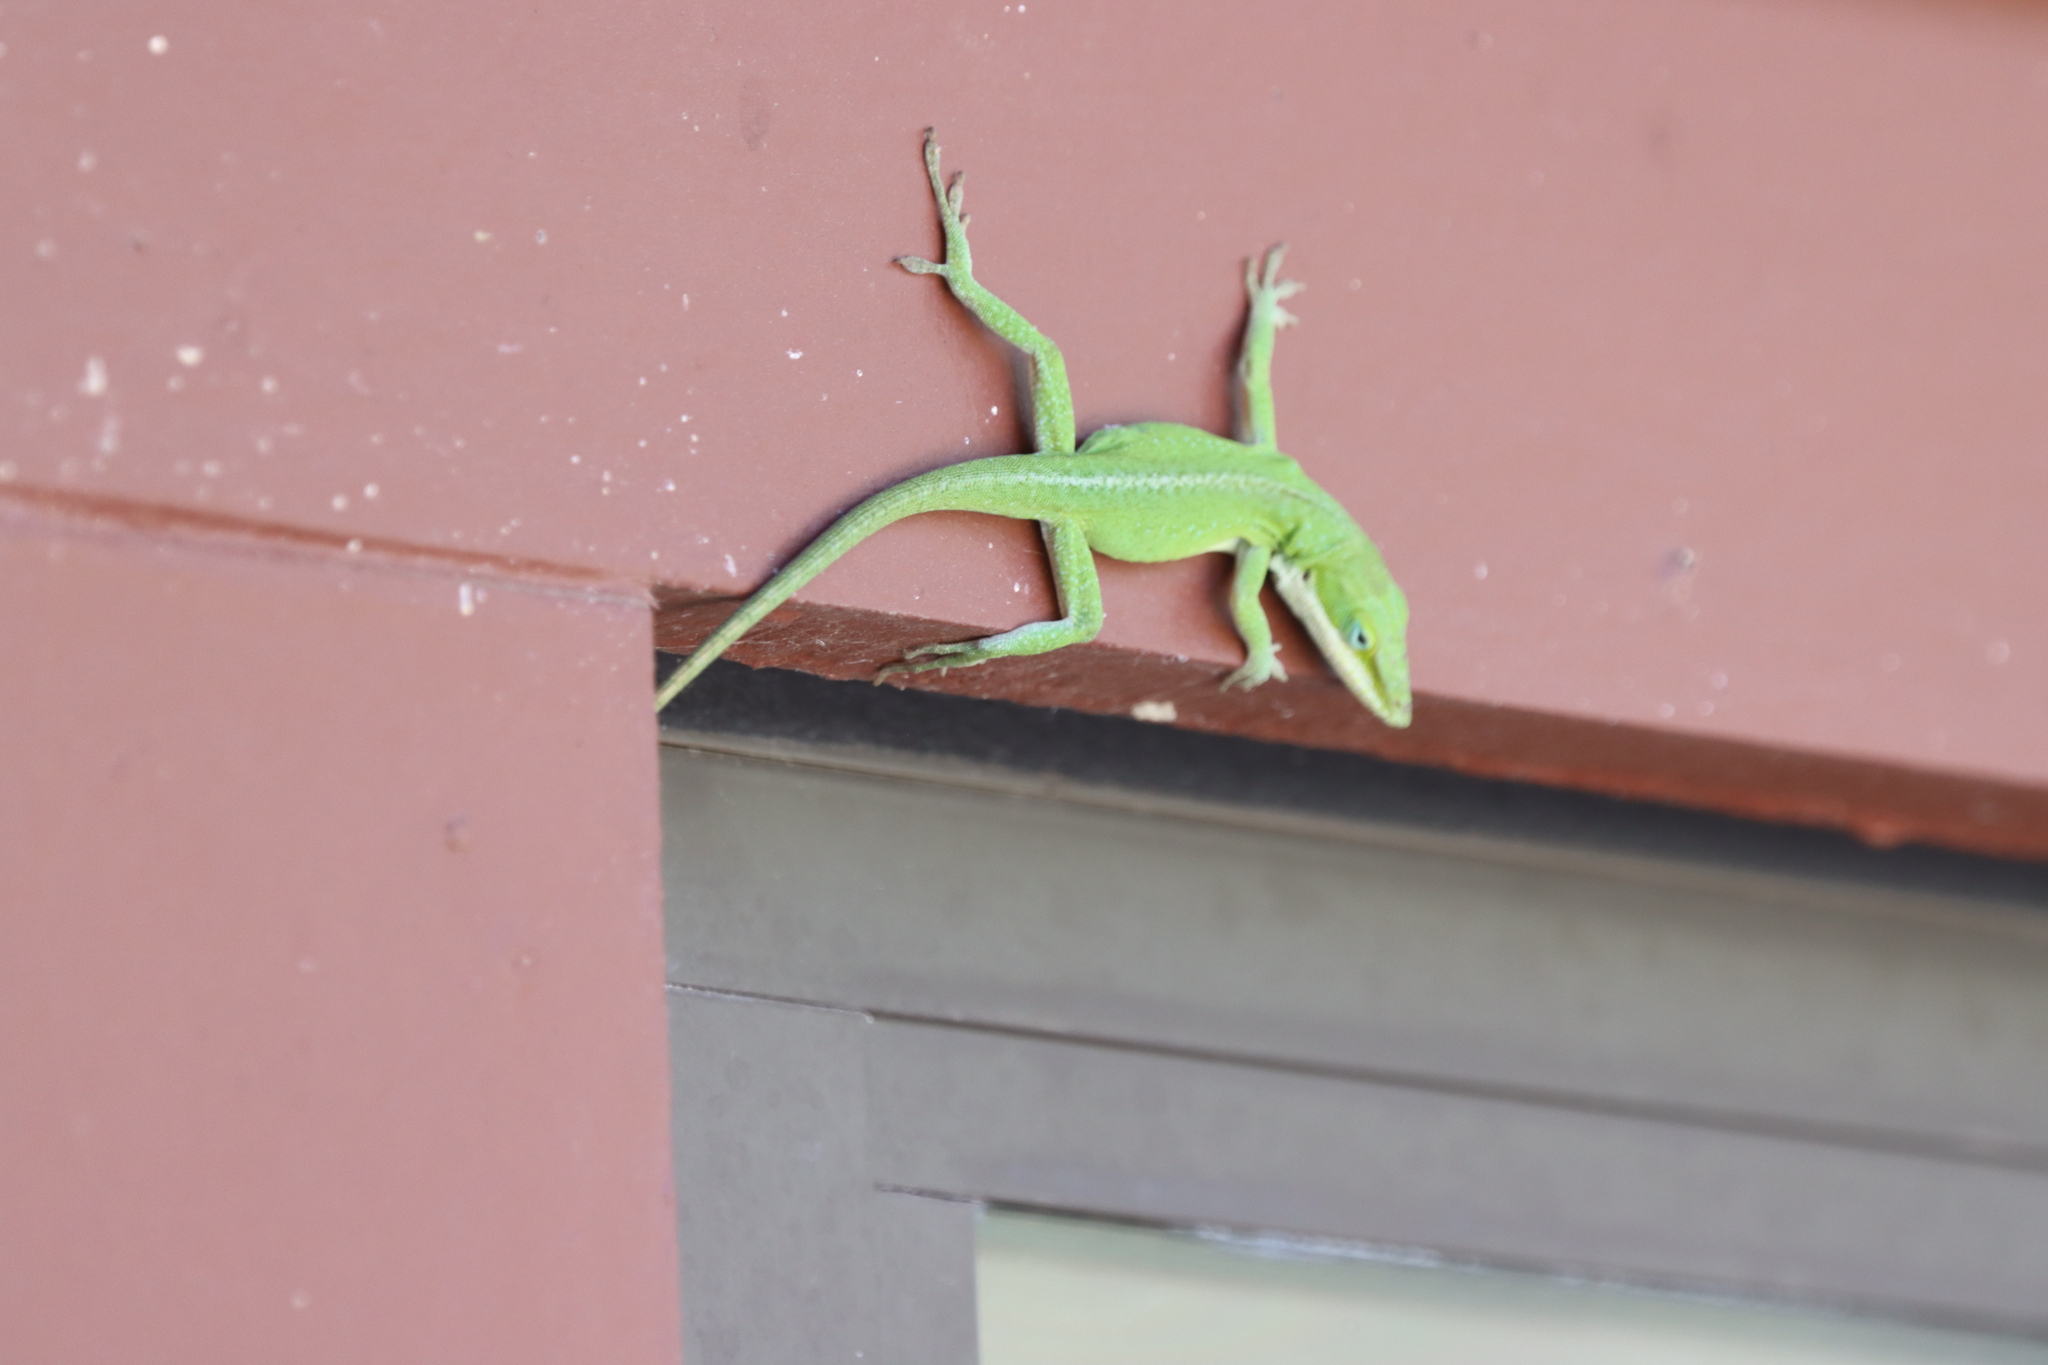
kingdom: Animalia
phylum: Chordata
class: Squamata
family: Dactyloidae
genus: Anolis
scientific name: Anolis carolinensis
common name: Green anole
